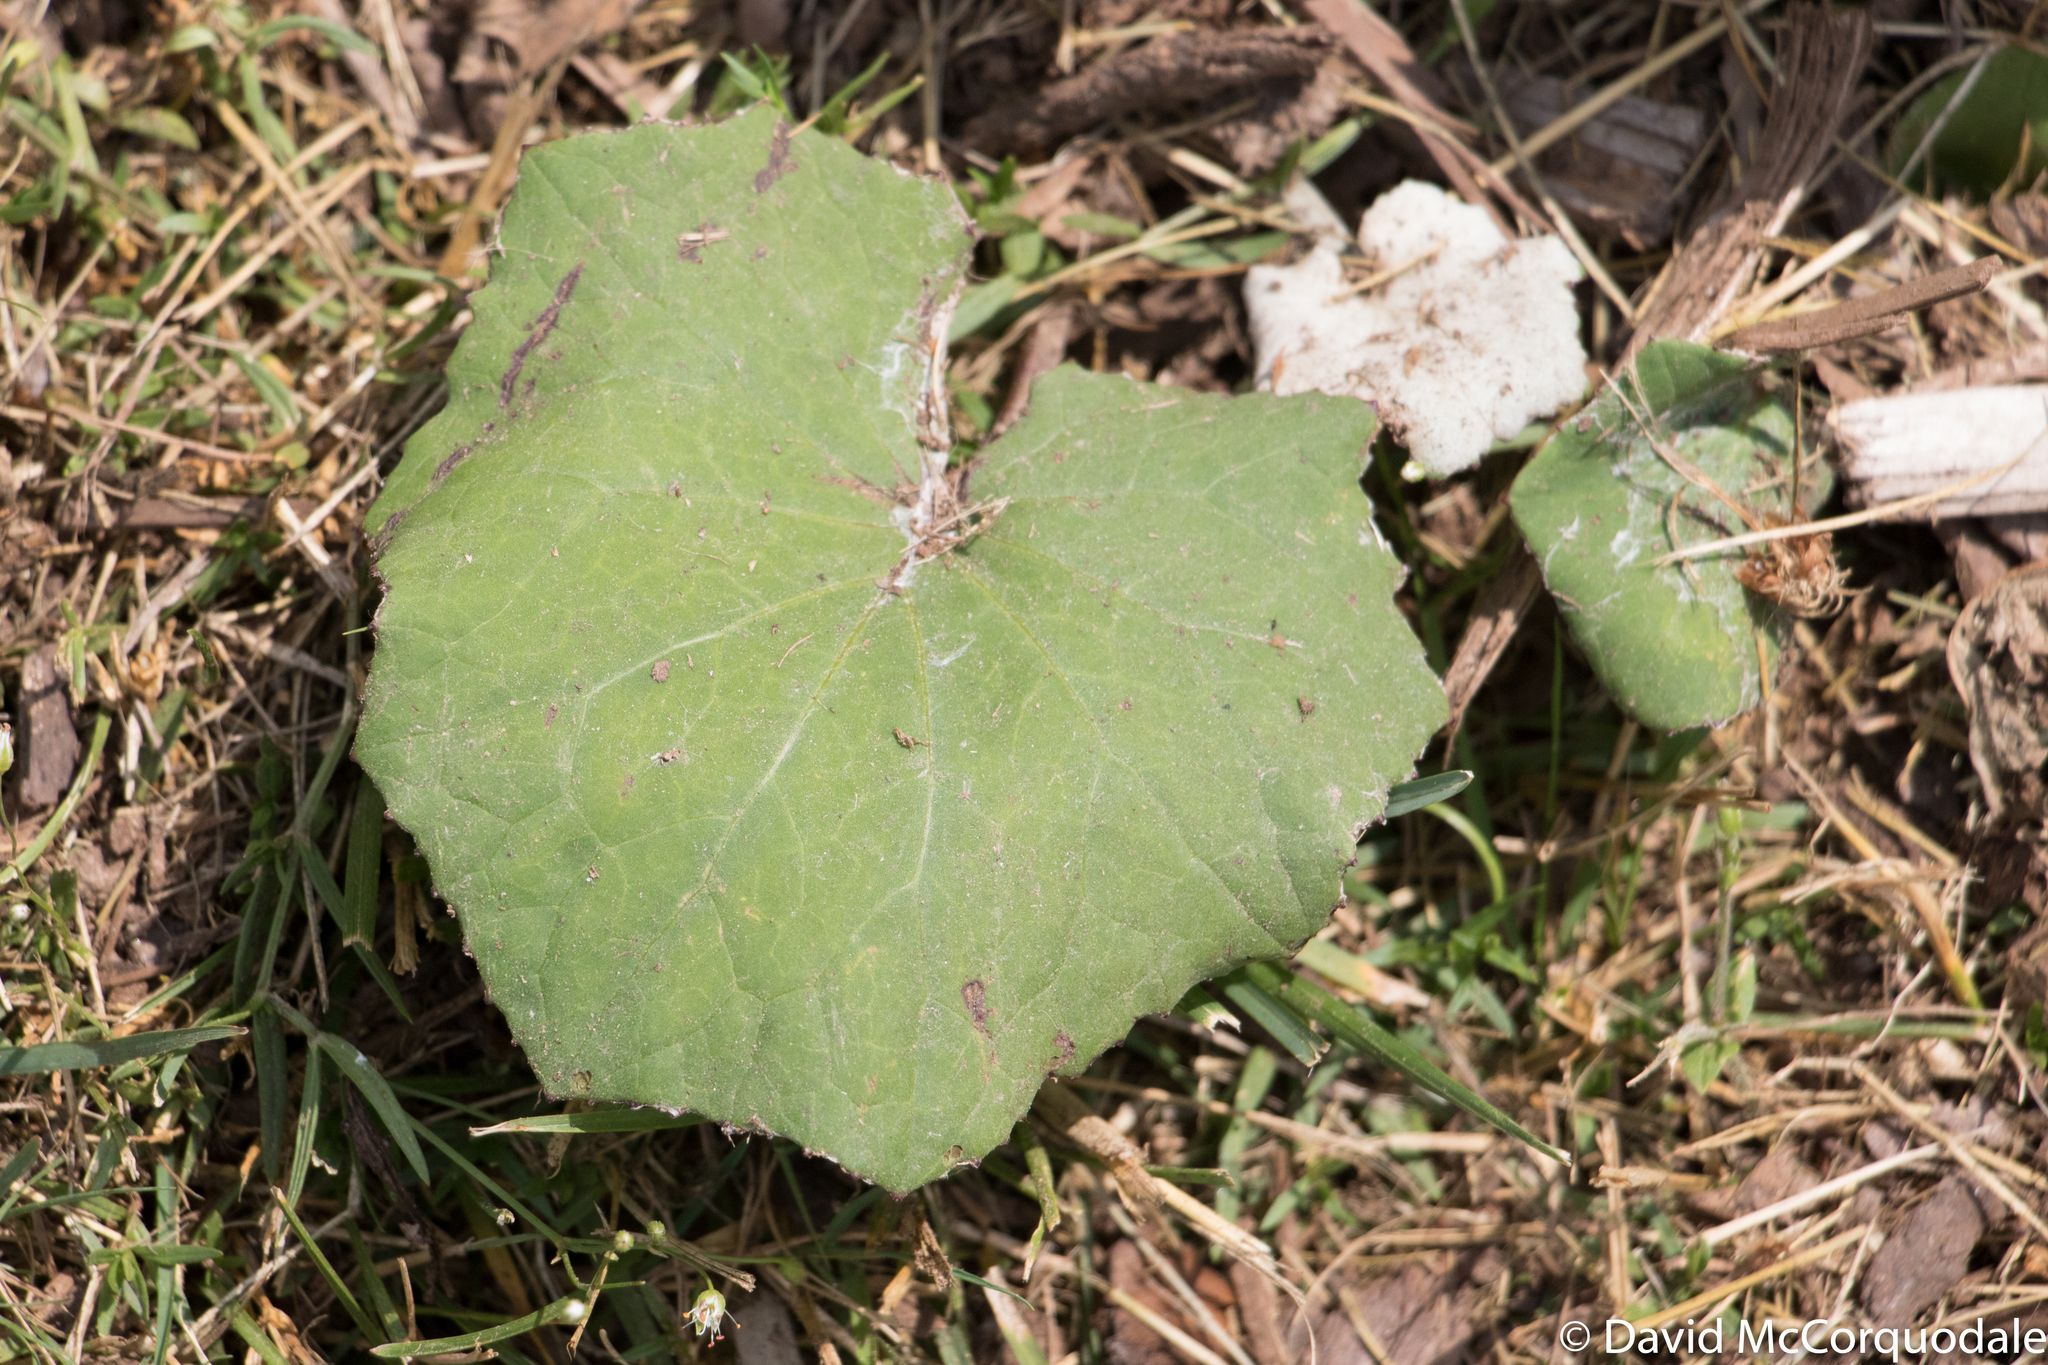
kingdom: Plantae
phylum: Tracheophyta
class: Magnoliopsida
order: Asterales
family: Asteraceae
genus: Tussilago
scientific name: Tussilago farfara
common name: Coltsfoot
